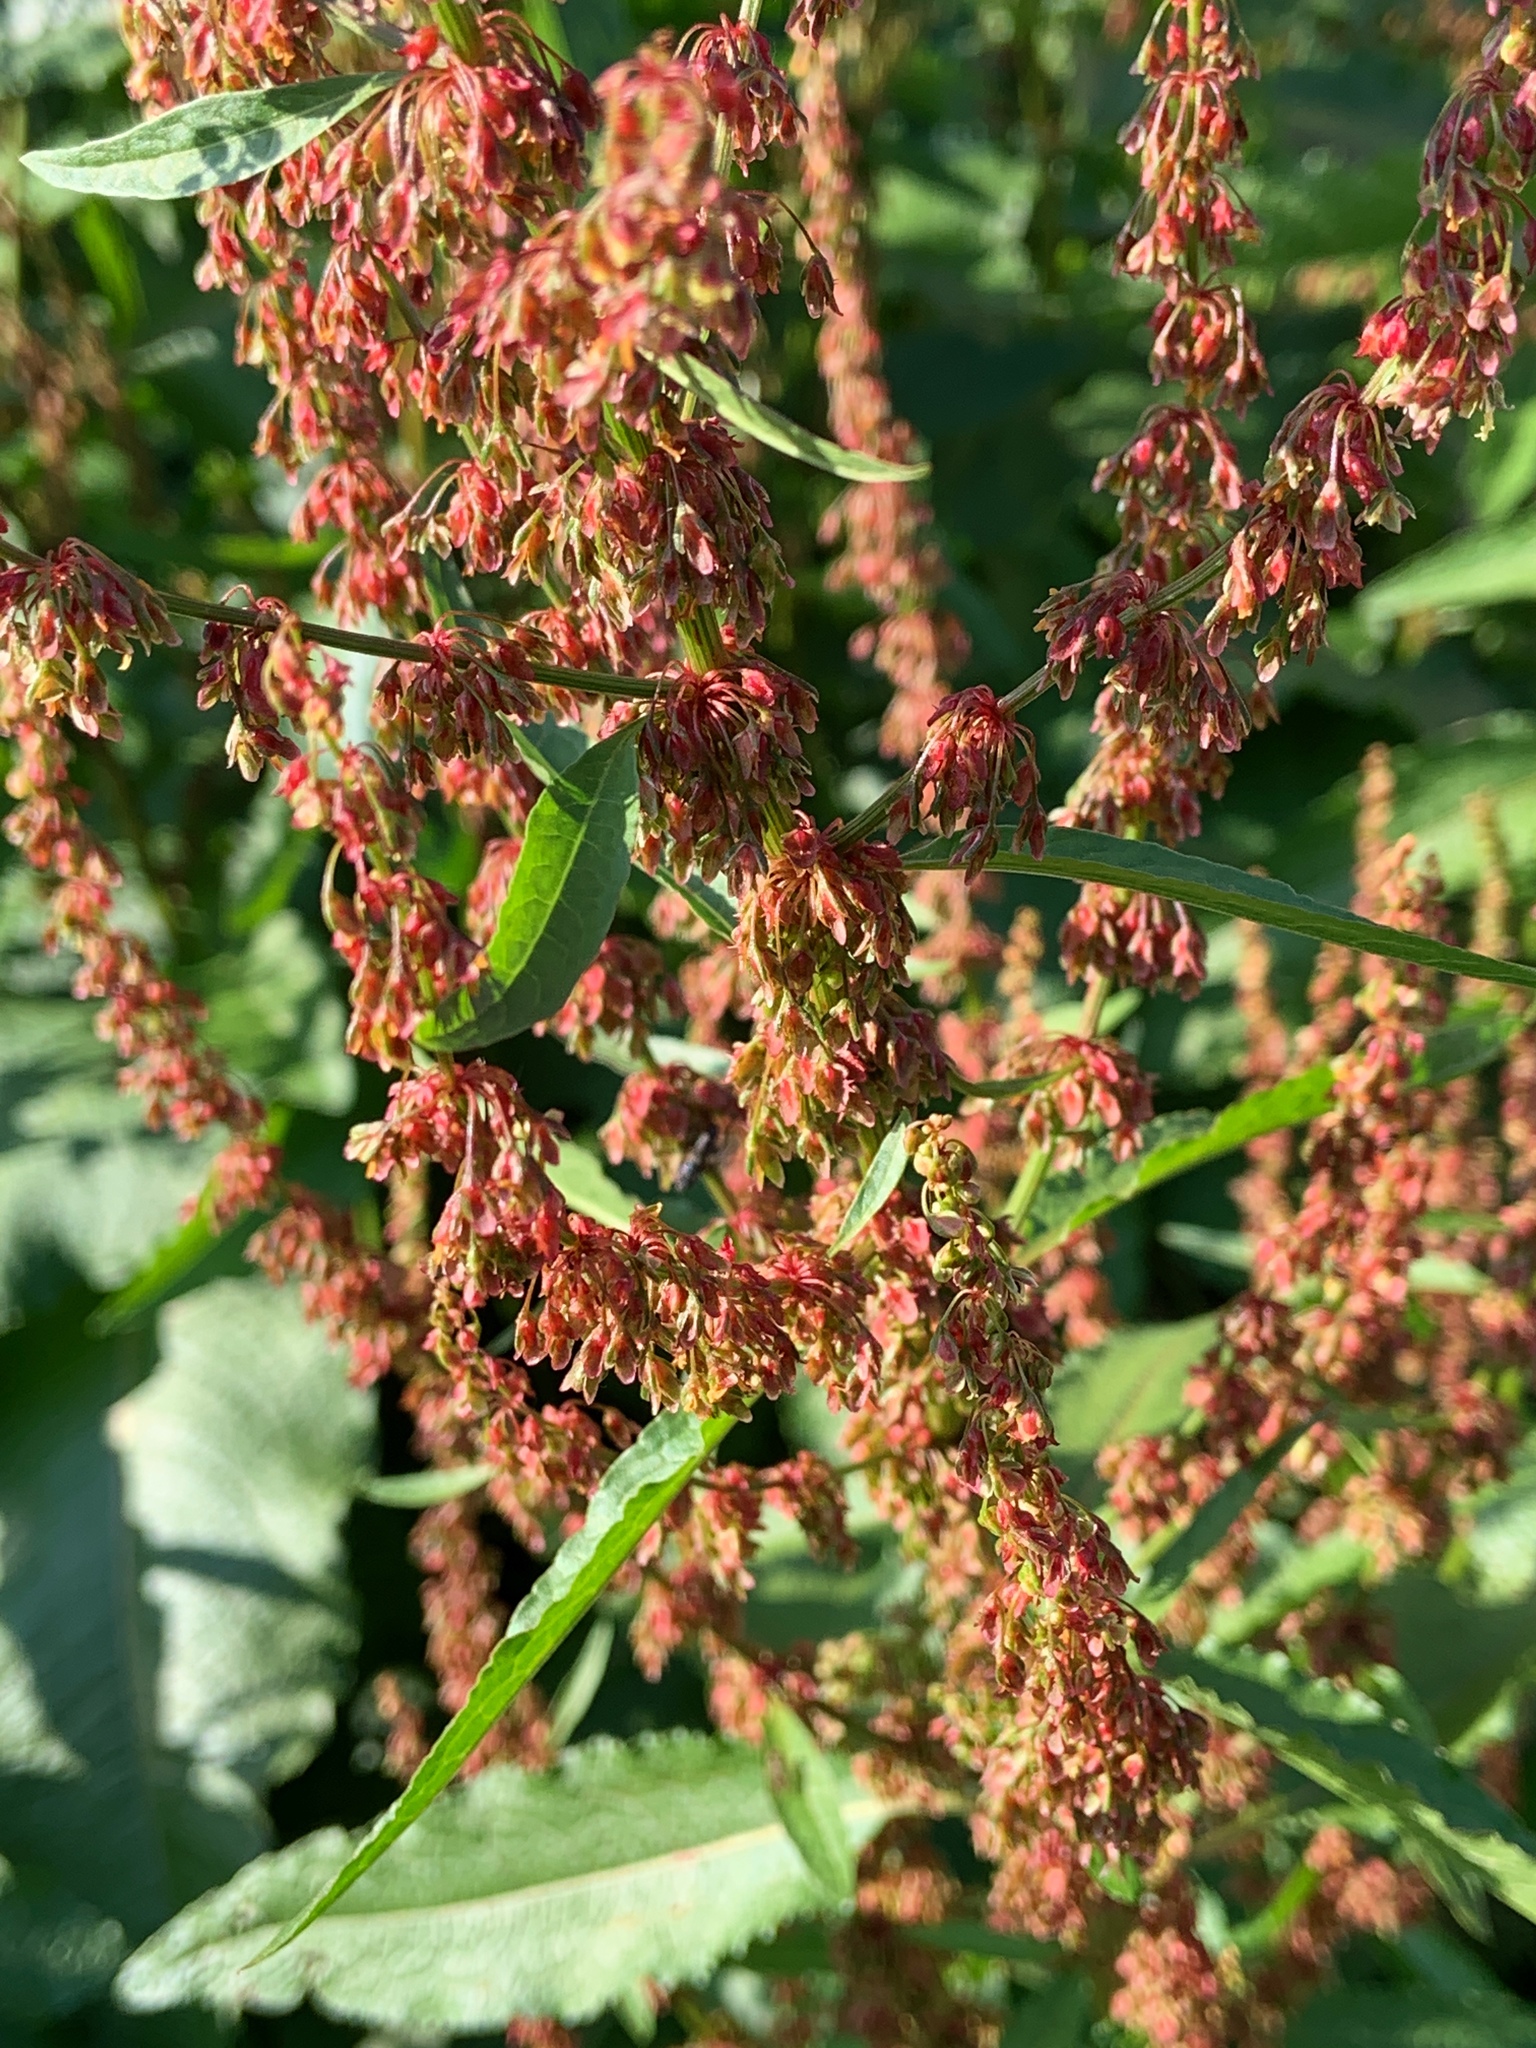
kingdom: Plantae
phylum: Tracheophyta
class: Magnoliopsida
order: Caryophyllales
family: Polygonaceae
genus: Rumex
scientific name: Rumex crispus
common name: Curled dock
